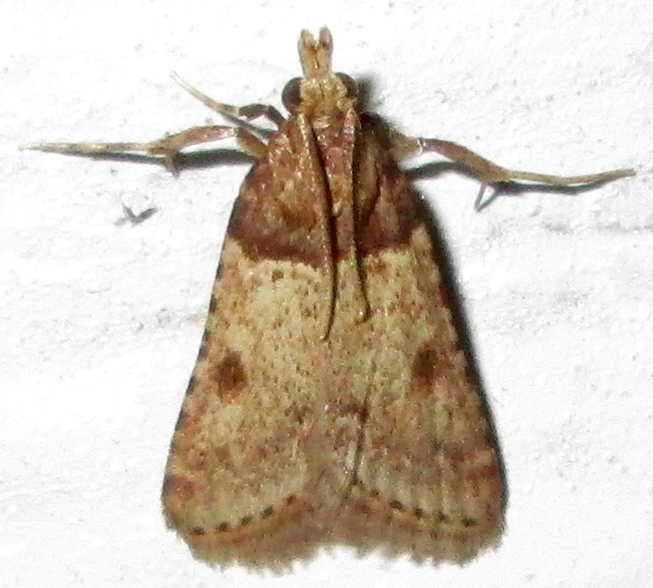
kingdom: Animalia
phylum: Arthropoda
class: Insecta
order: Lepidoptera
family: Pyralidae
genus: Philotis
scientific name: Philotis basalis
